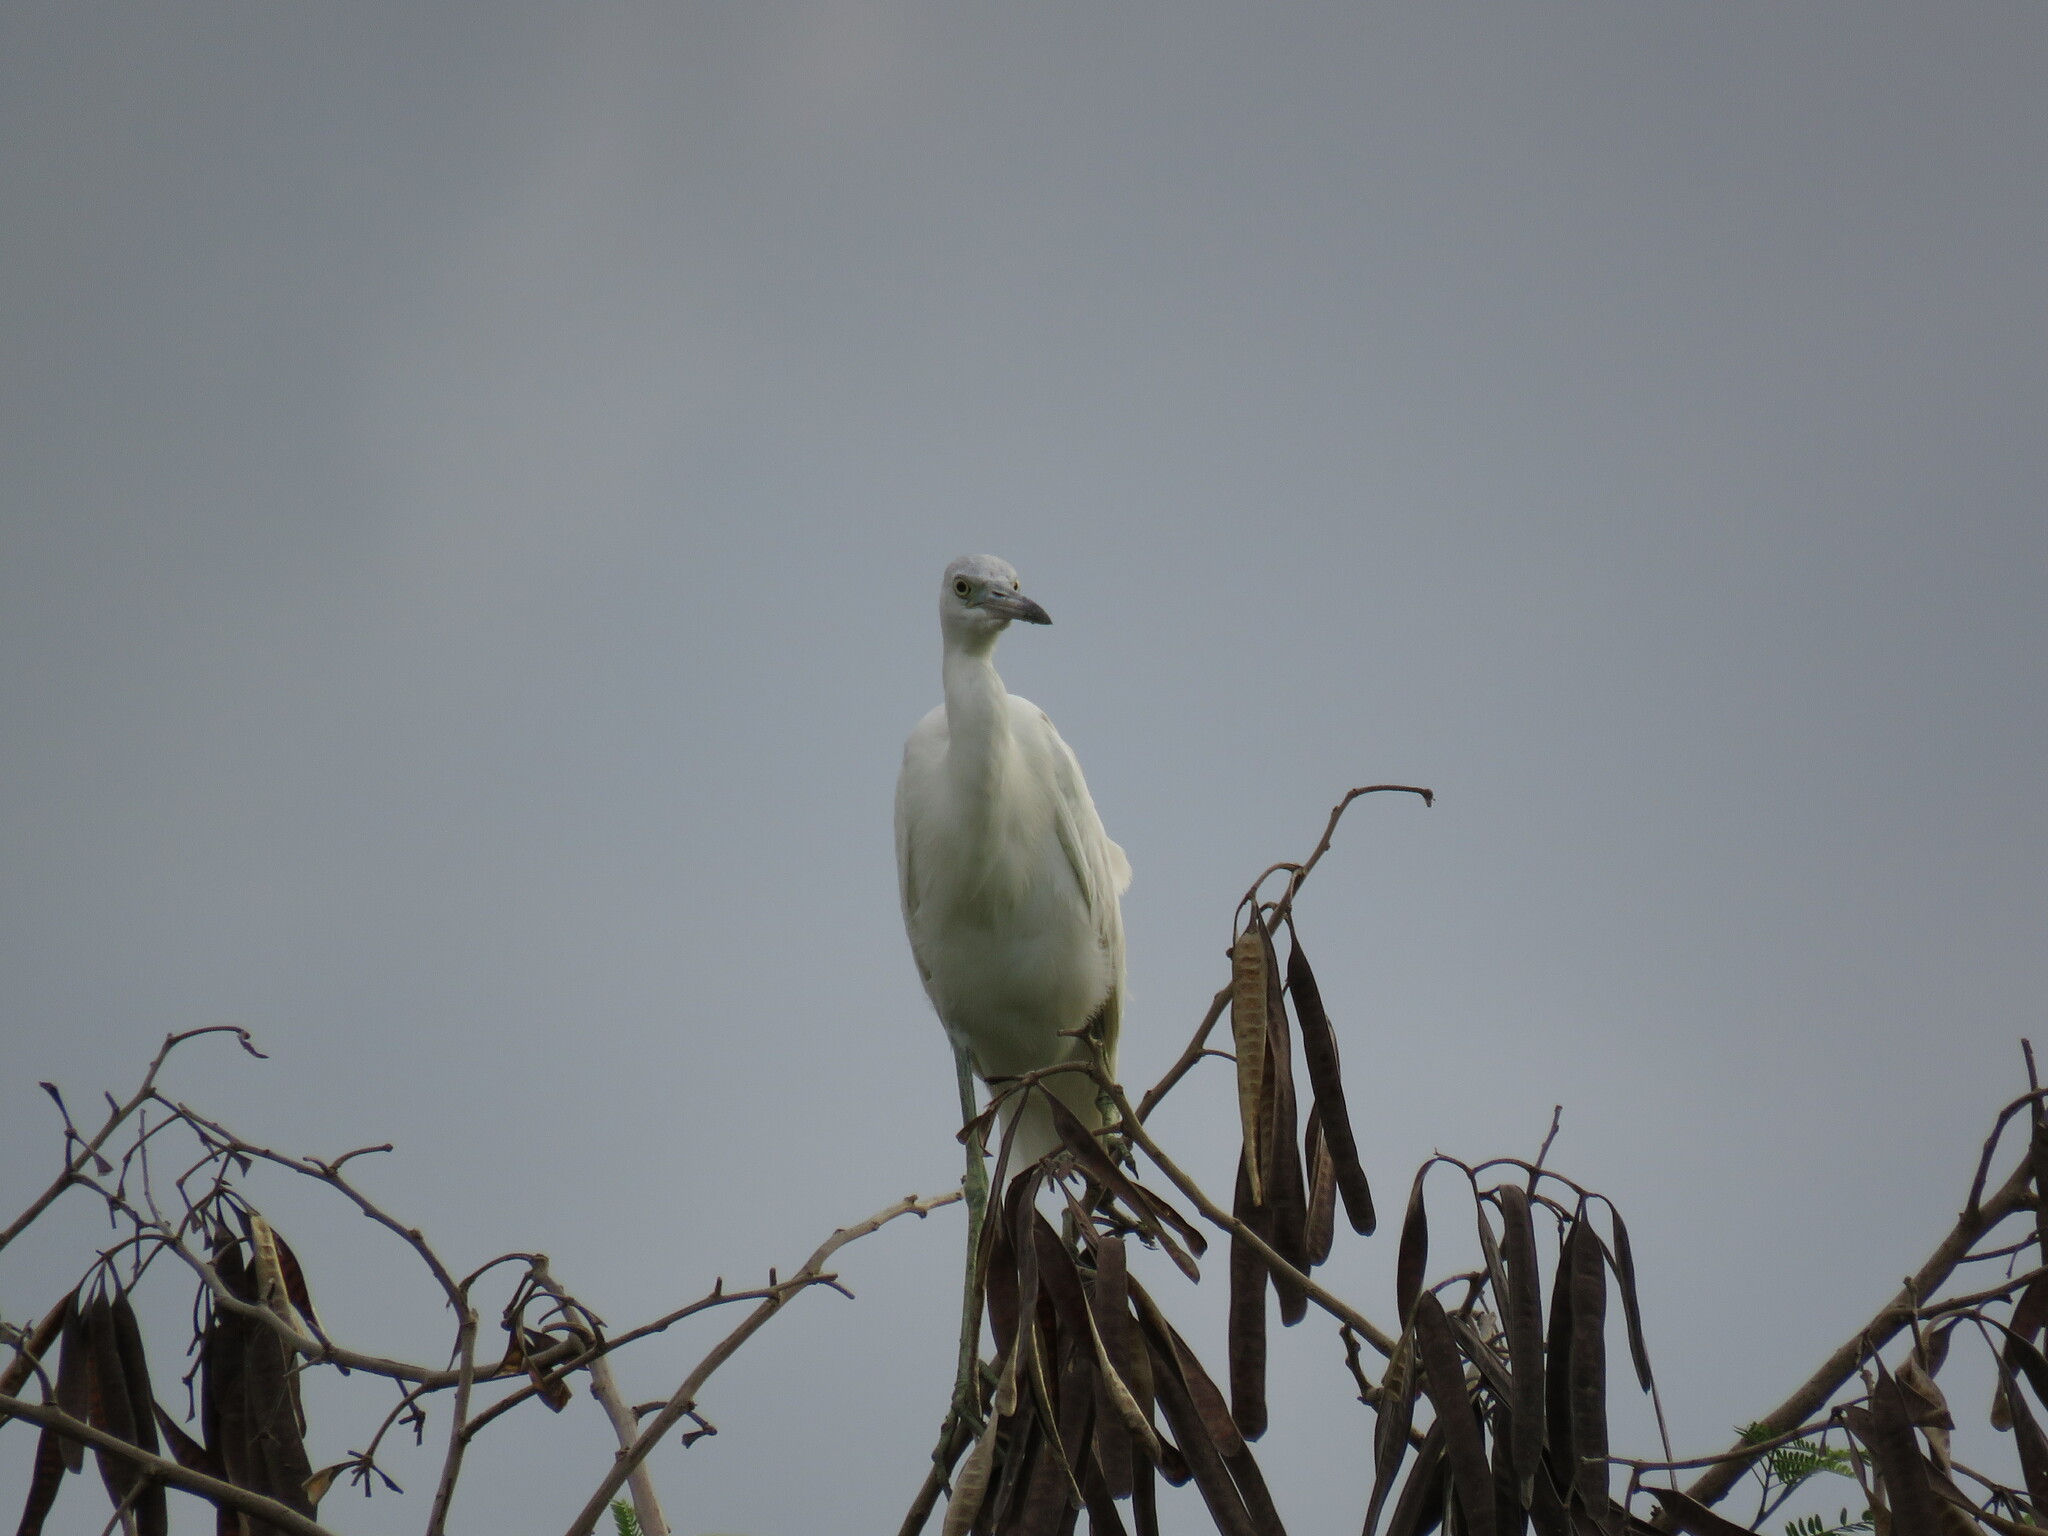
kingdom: Animalia
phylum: Chordata
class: Aves
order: Pelecaniformes
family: Ardeidae
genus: Egretta
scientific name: Egretta caerulea
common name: Little blue heron
